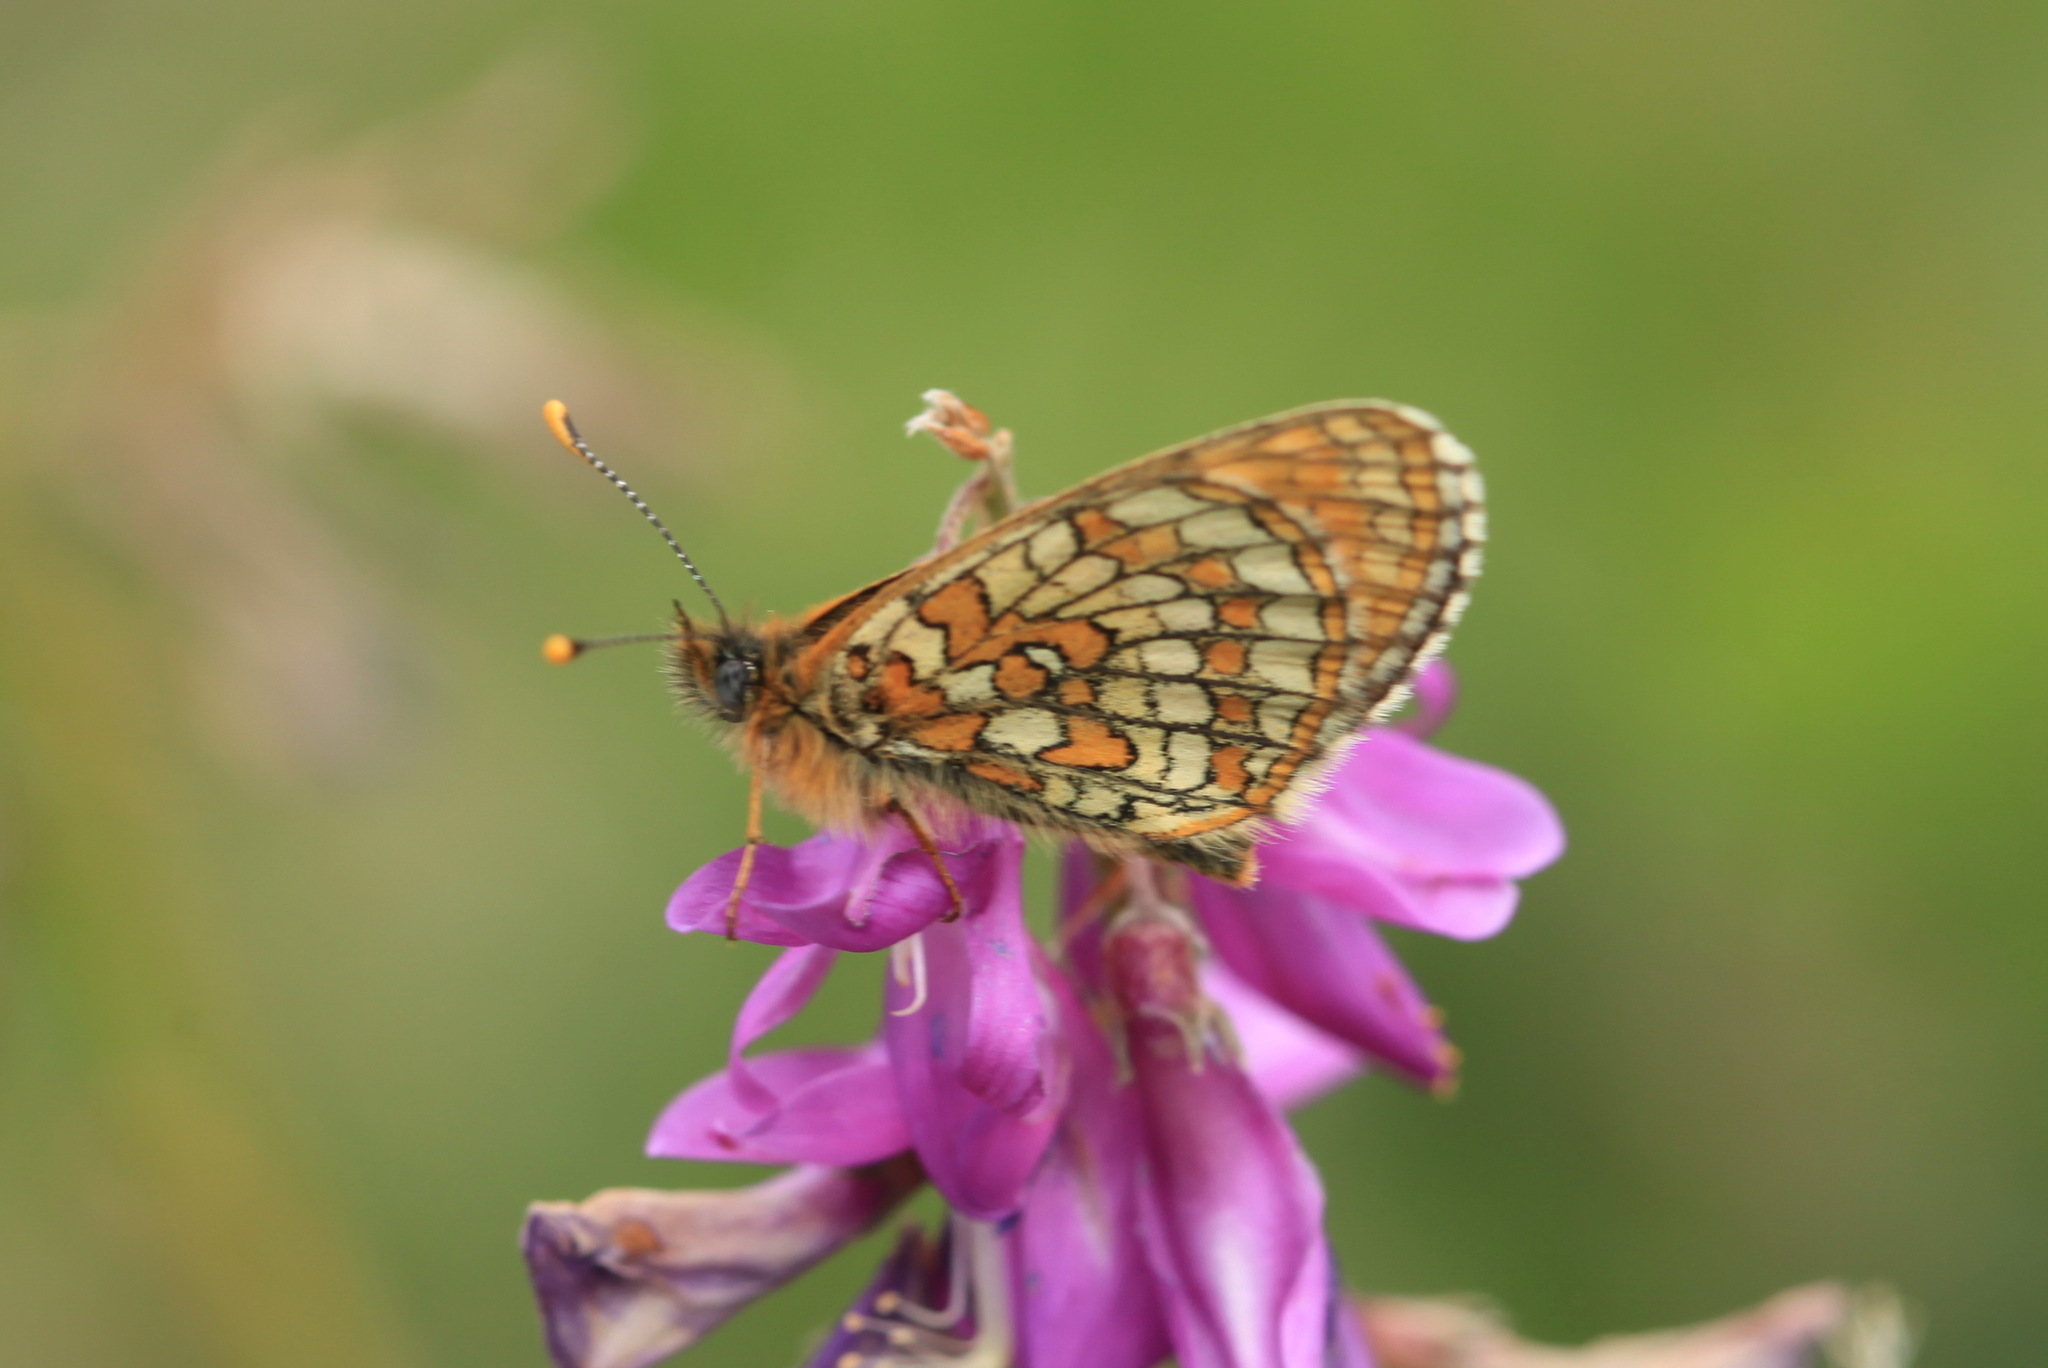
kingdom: Animalia
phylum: Arthropoda
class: Insecta
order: Lepidoptera
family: Nymphalidae
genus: Melitaea
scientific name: Melitaea arcesia
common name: Blackvein fritillary
